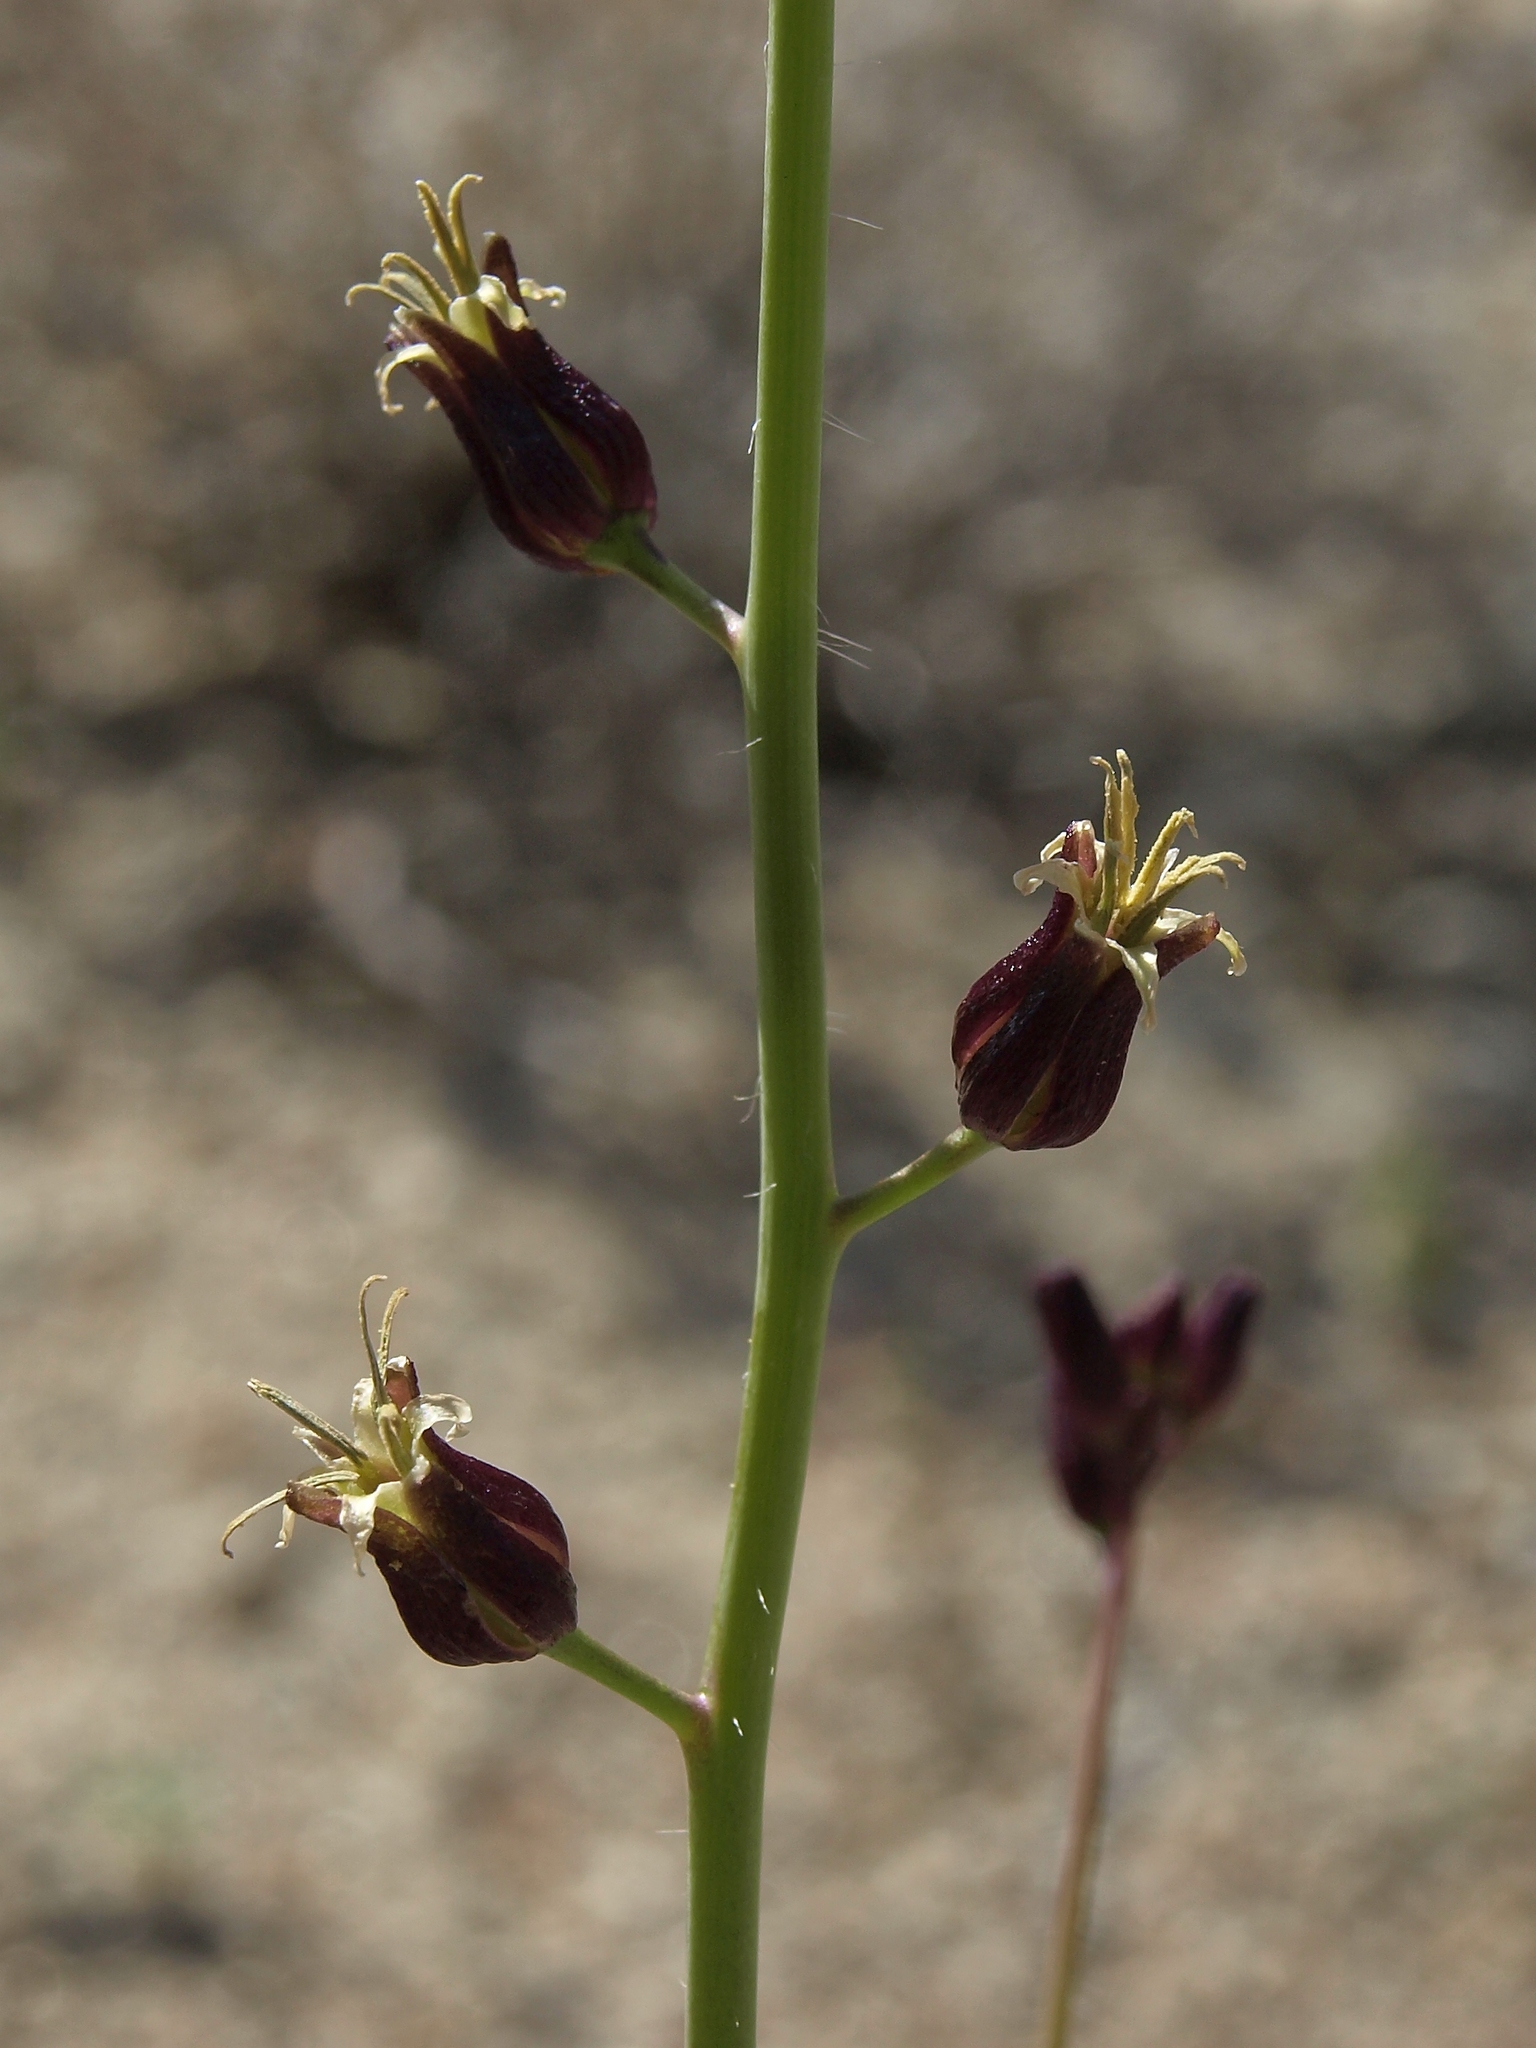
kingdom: Plantae
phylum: Tracheophyta
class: Magnoliopsida
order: Brassicales
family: Brassicaceae
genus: Streptanthus
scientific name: Streptanthus pilosus
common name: Chocolate drops
